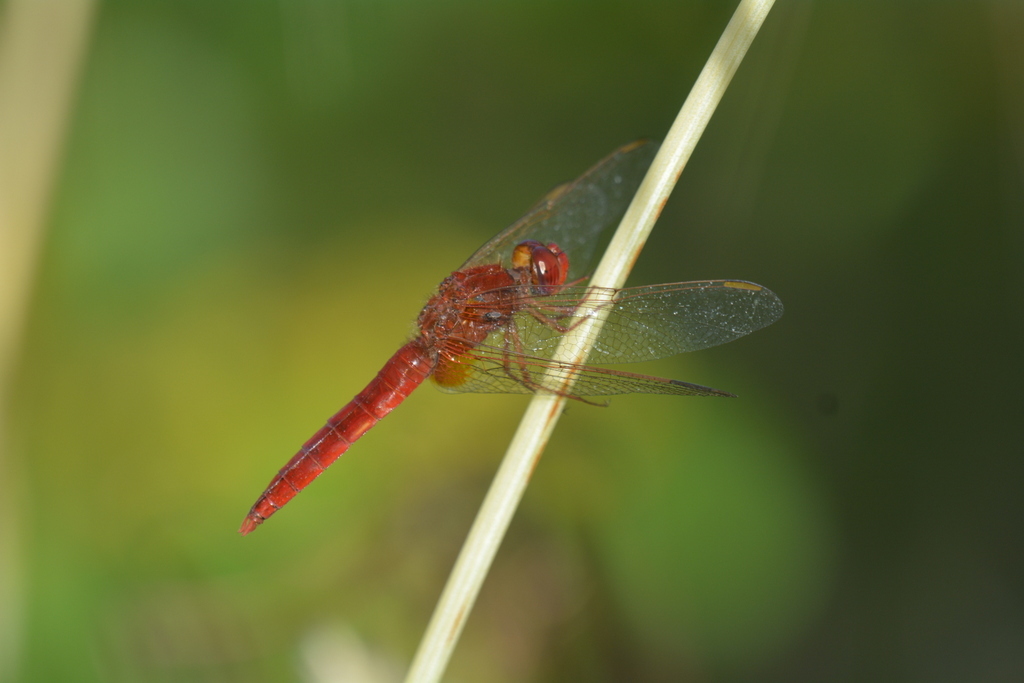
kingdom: Animalia
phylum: Arthropoda
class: Insecta
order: Odonata
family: Libellulidae
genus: Crocothemis
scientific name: Crocothemis erythraea
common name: Scarlet dragonfly
